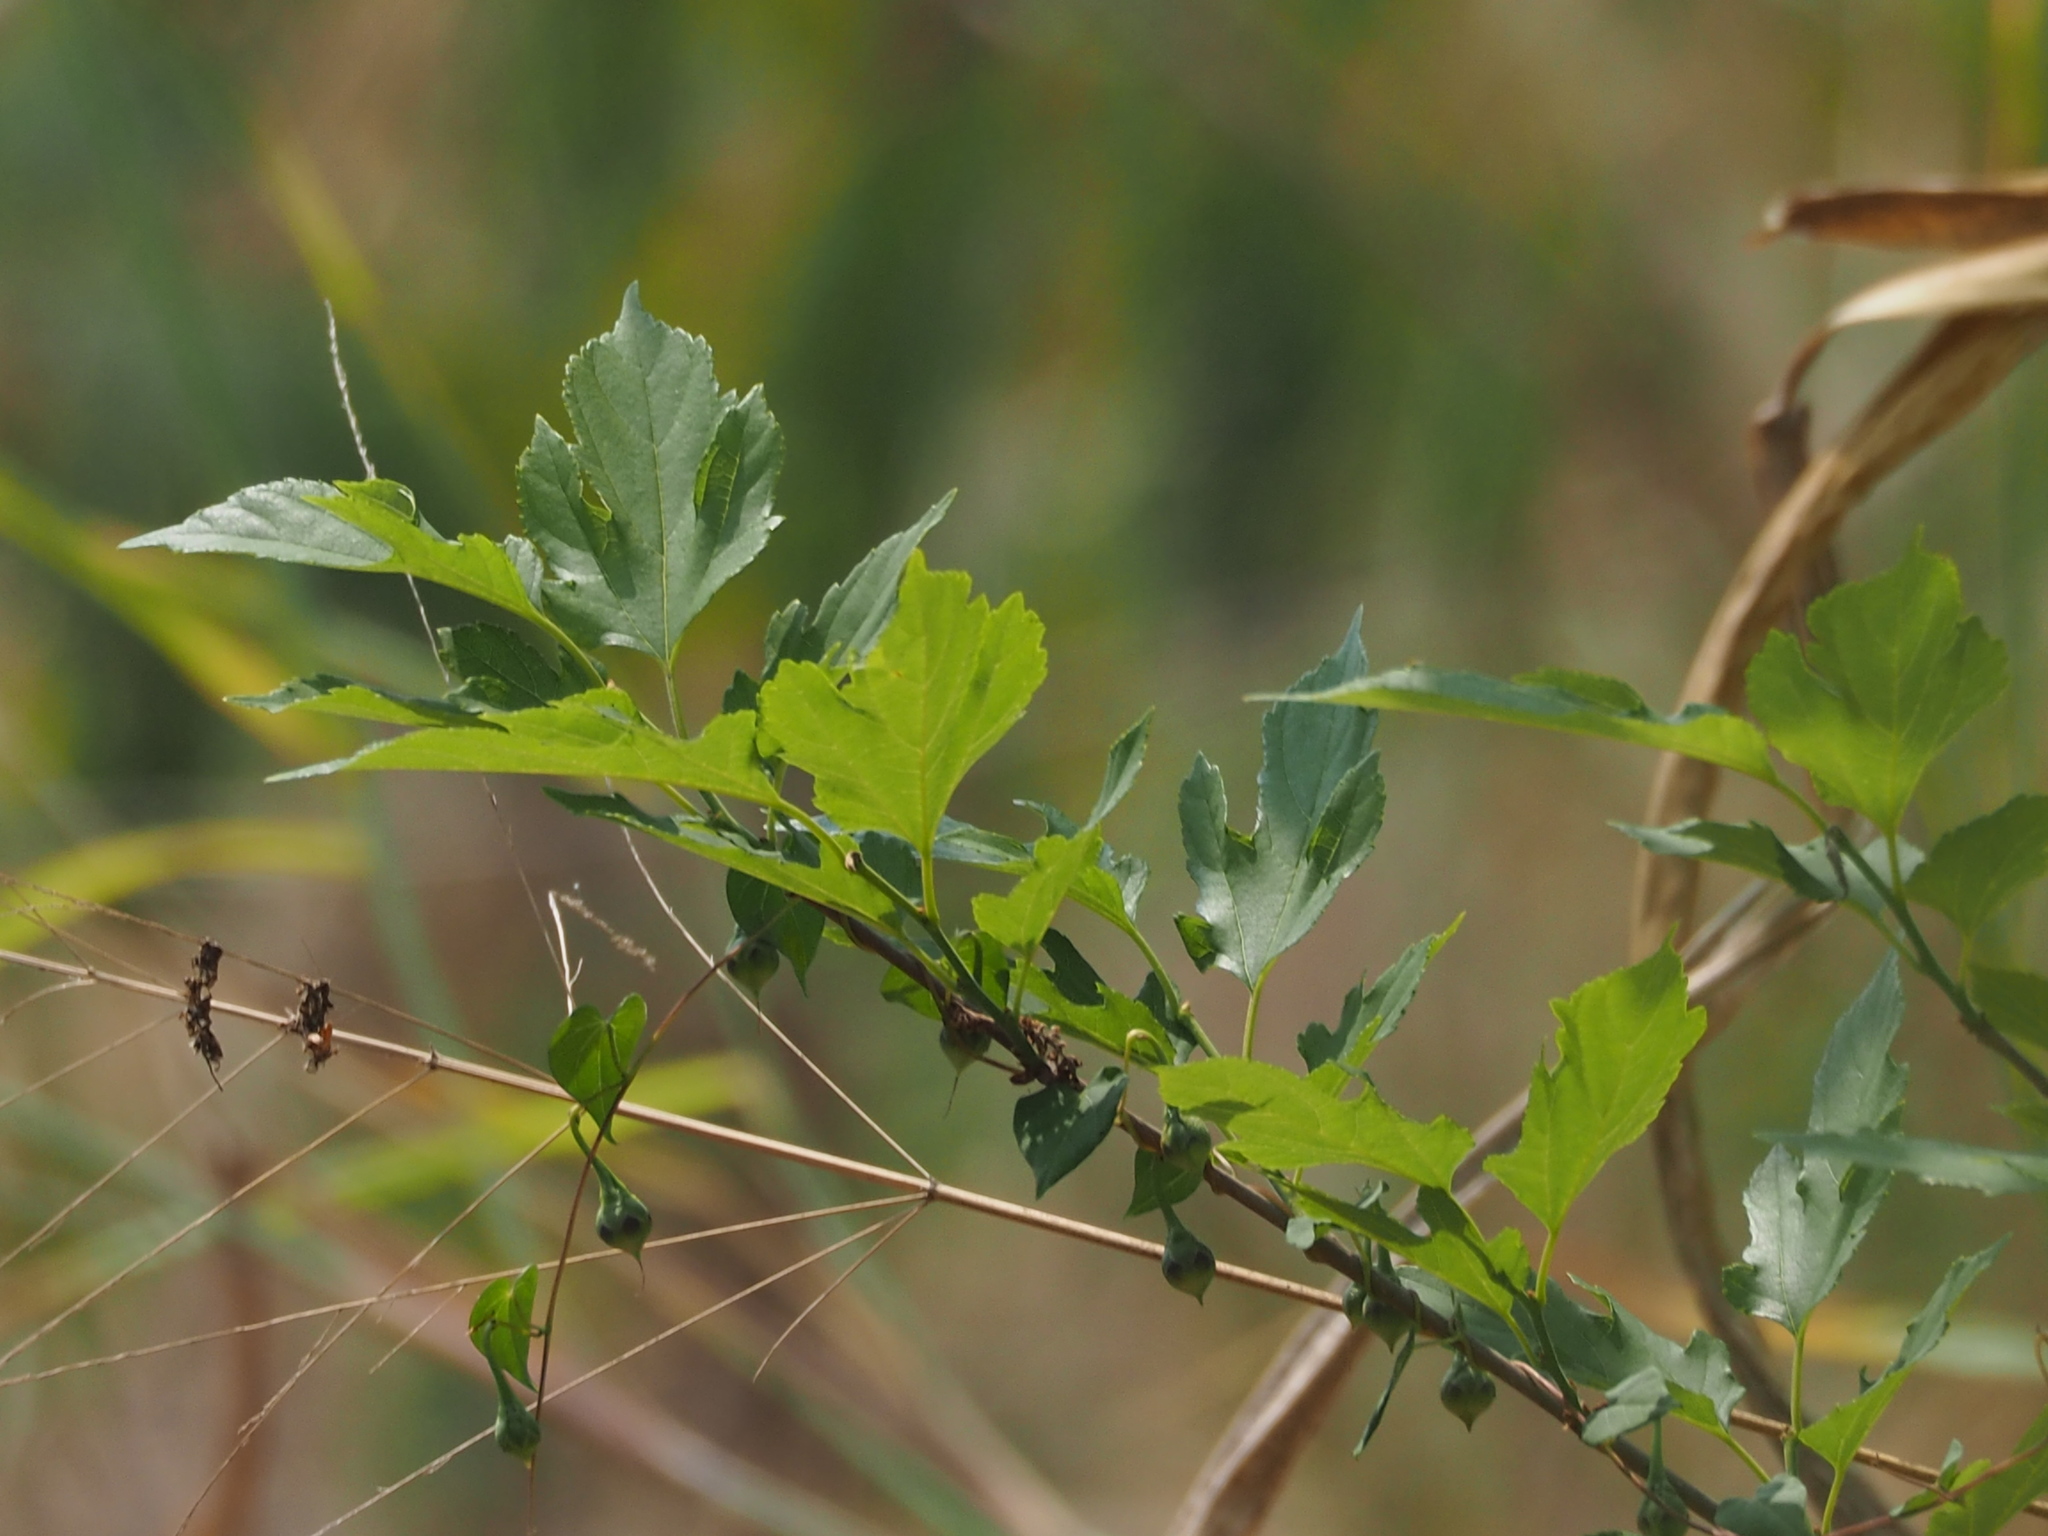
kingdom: Plantae
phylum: Tracheophyta
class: Magnoliopsida
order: Rosales
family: Moraceae
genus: Morus
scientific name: Morus indica
